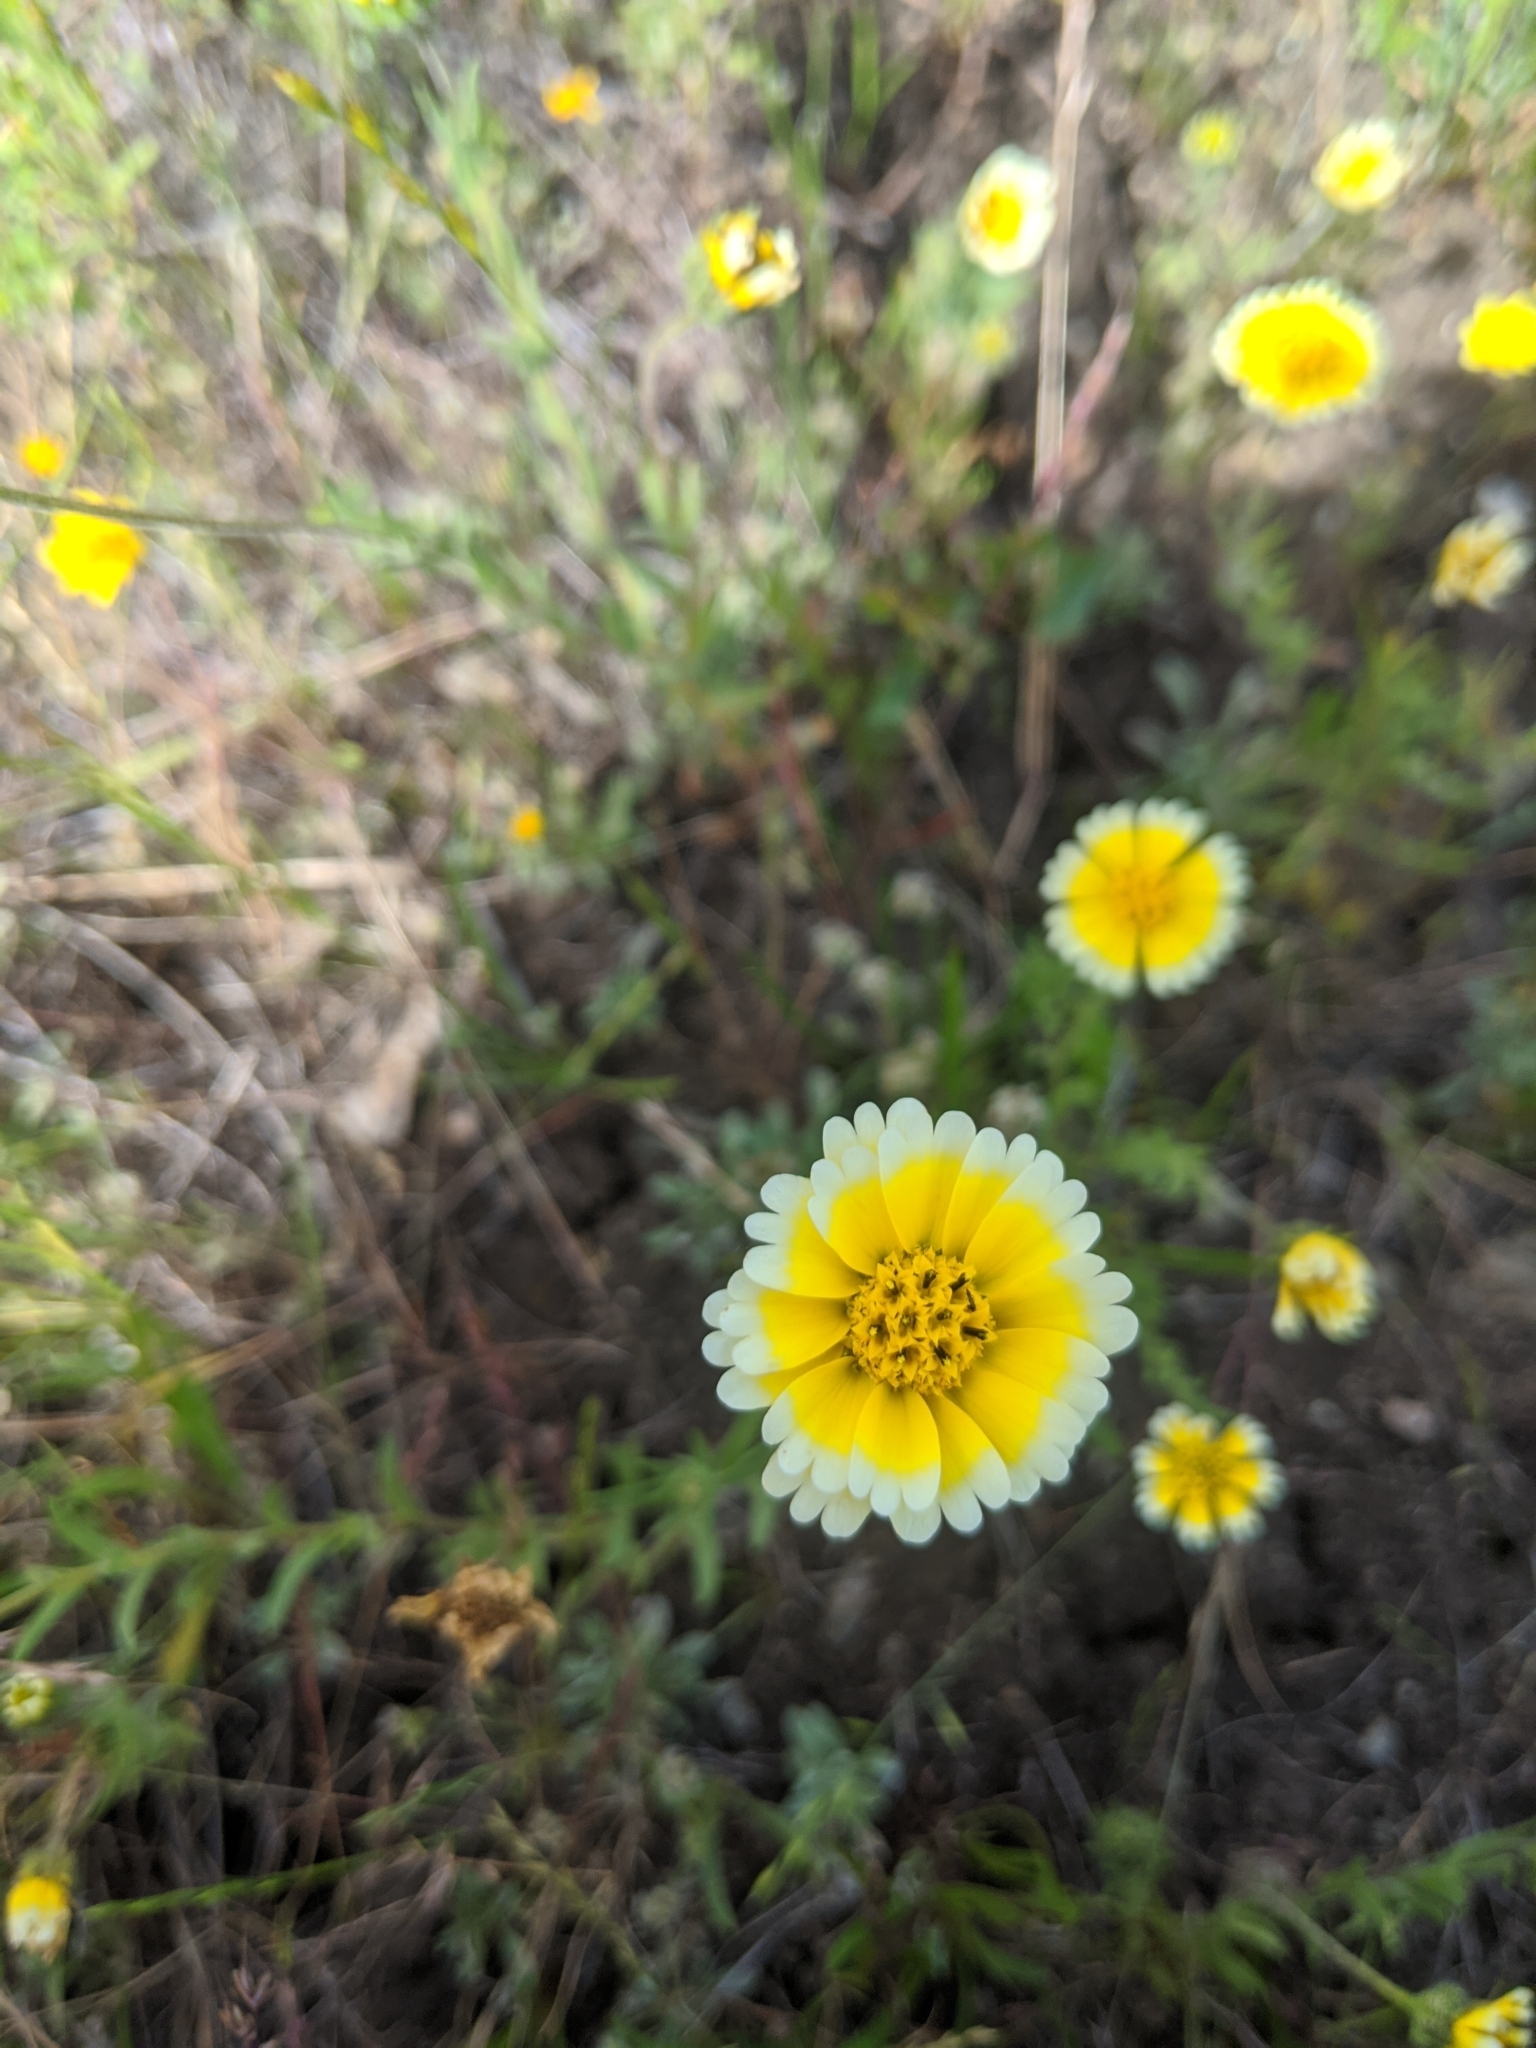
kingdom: Plantae
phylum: Tracheophyta
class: Magnoliopsida
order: Asterales
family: Asteraceae
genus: Layia
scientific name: Layia jonesii
